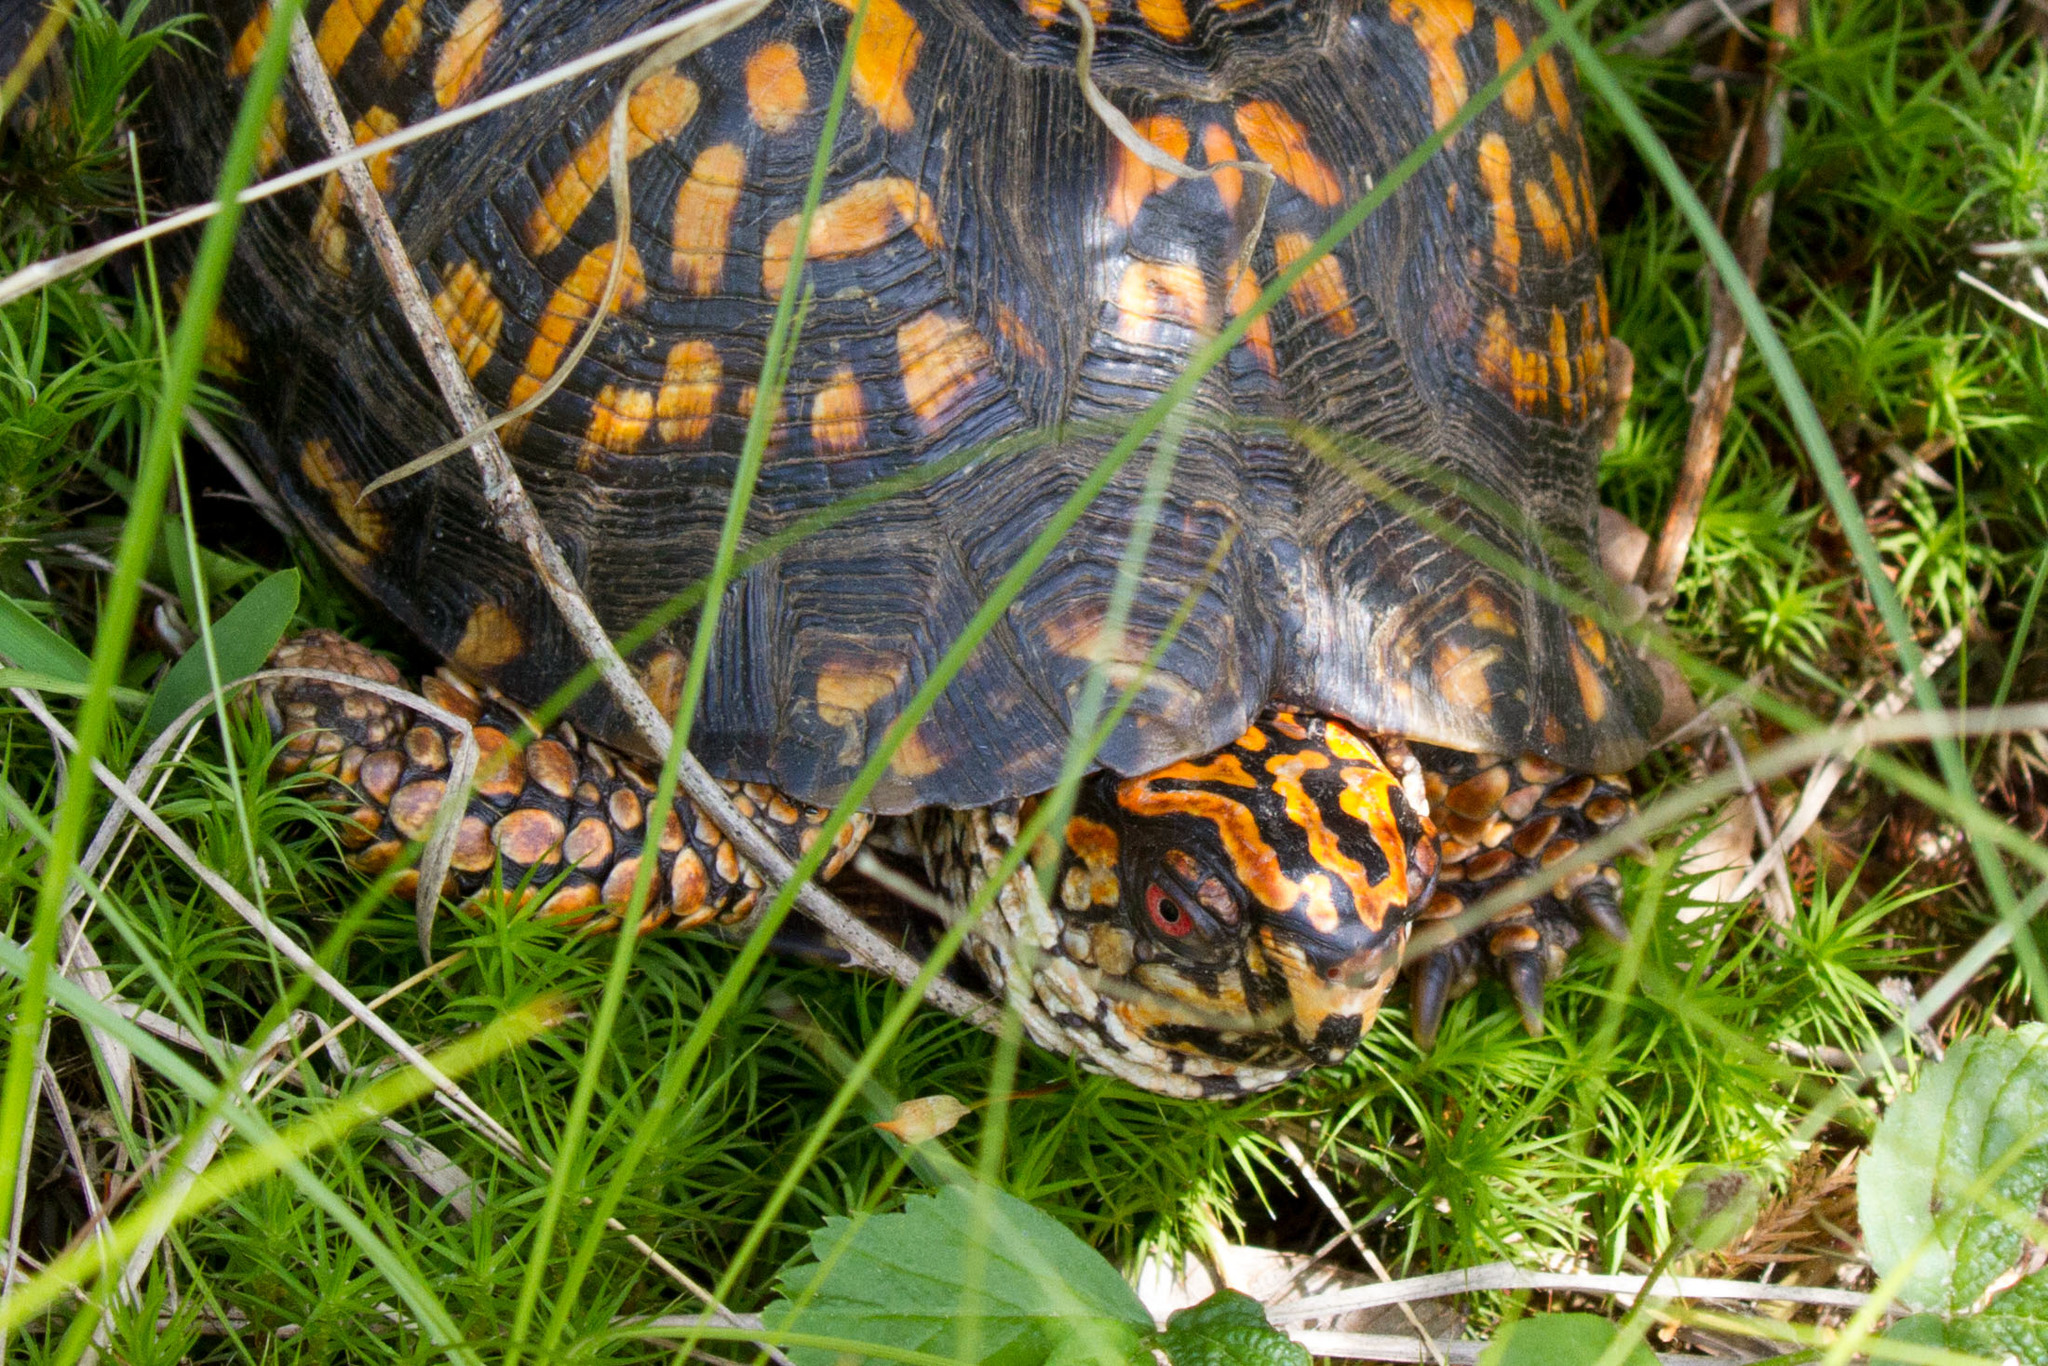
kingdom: Animalia
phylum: Chordata
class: Testudines
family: Emydidae
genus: Terrapene
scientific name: Terrapene carolina
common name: Common box turtle
